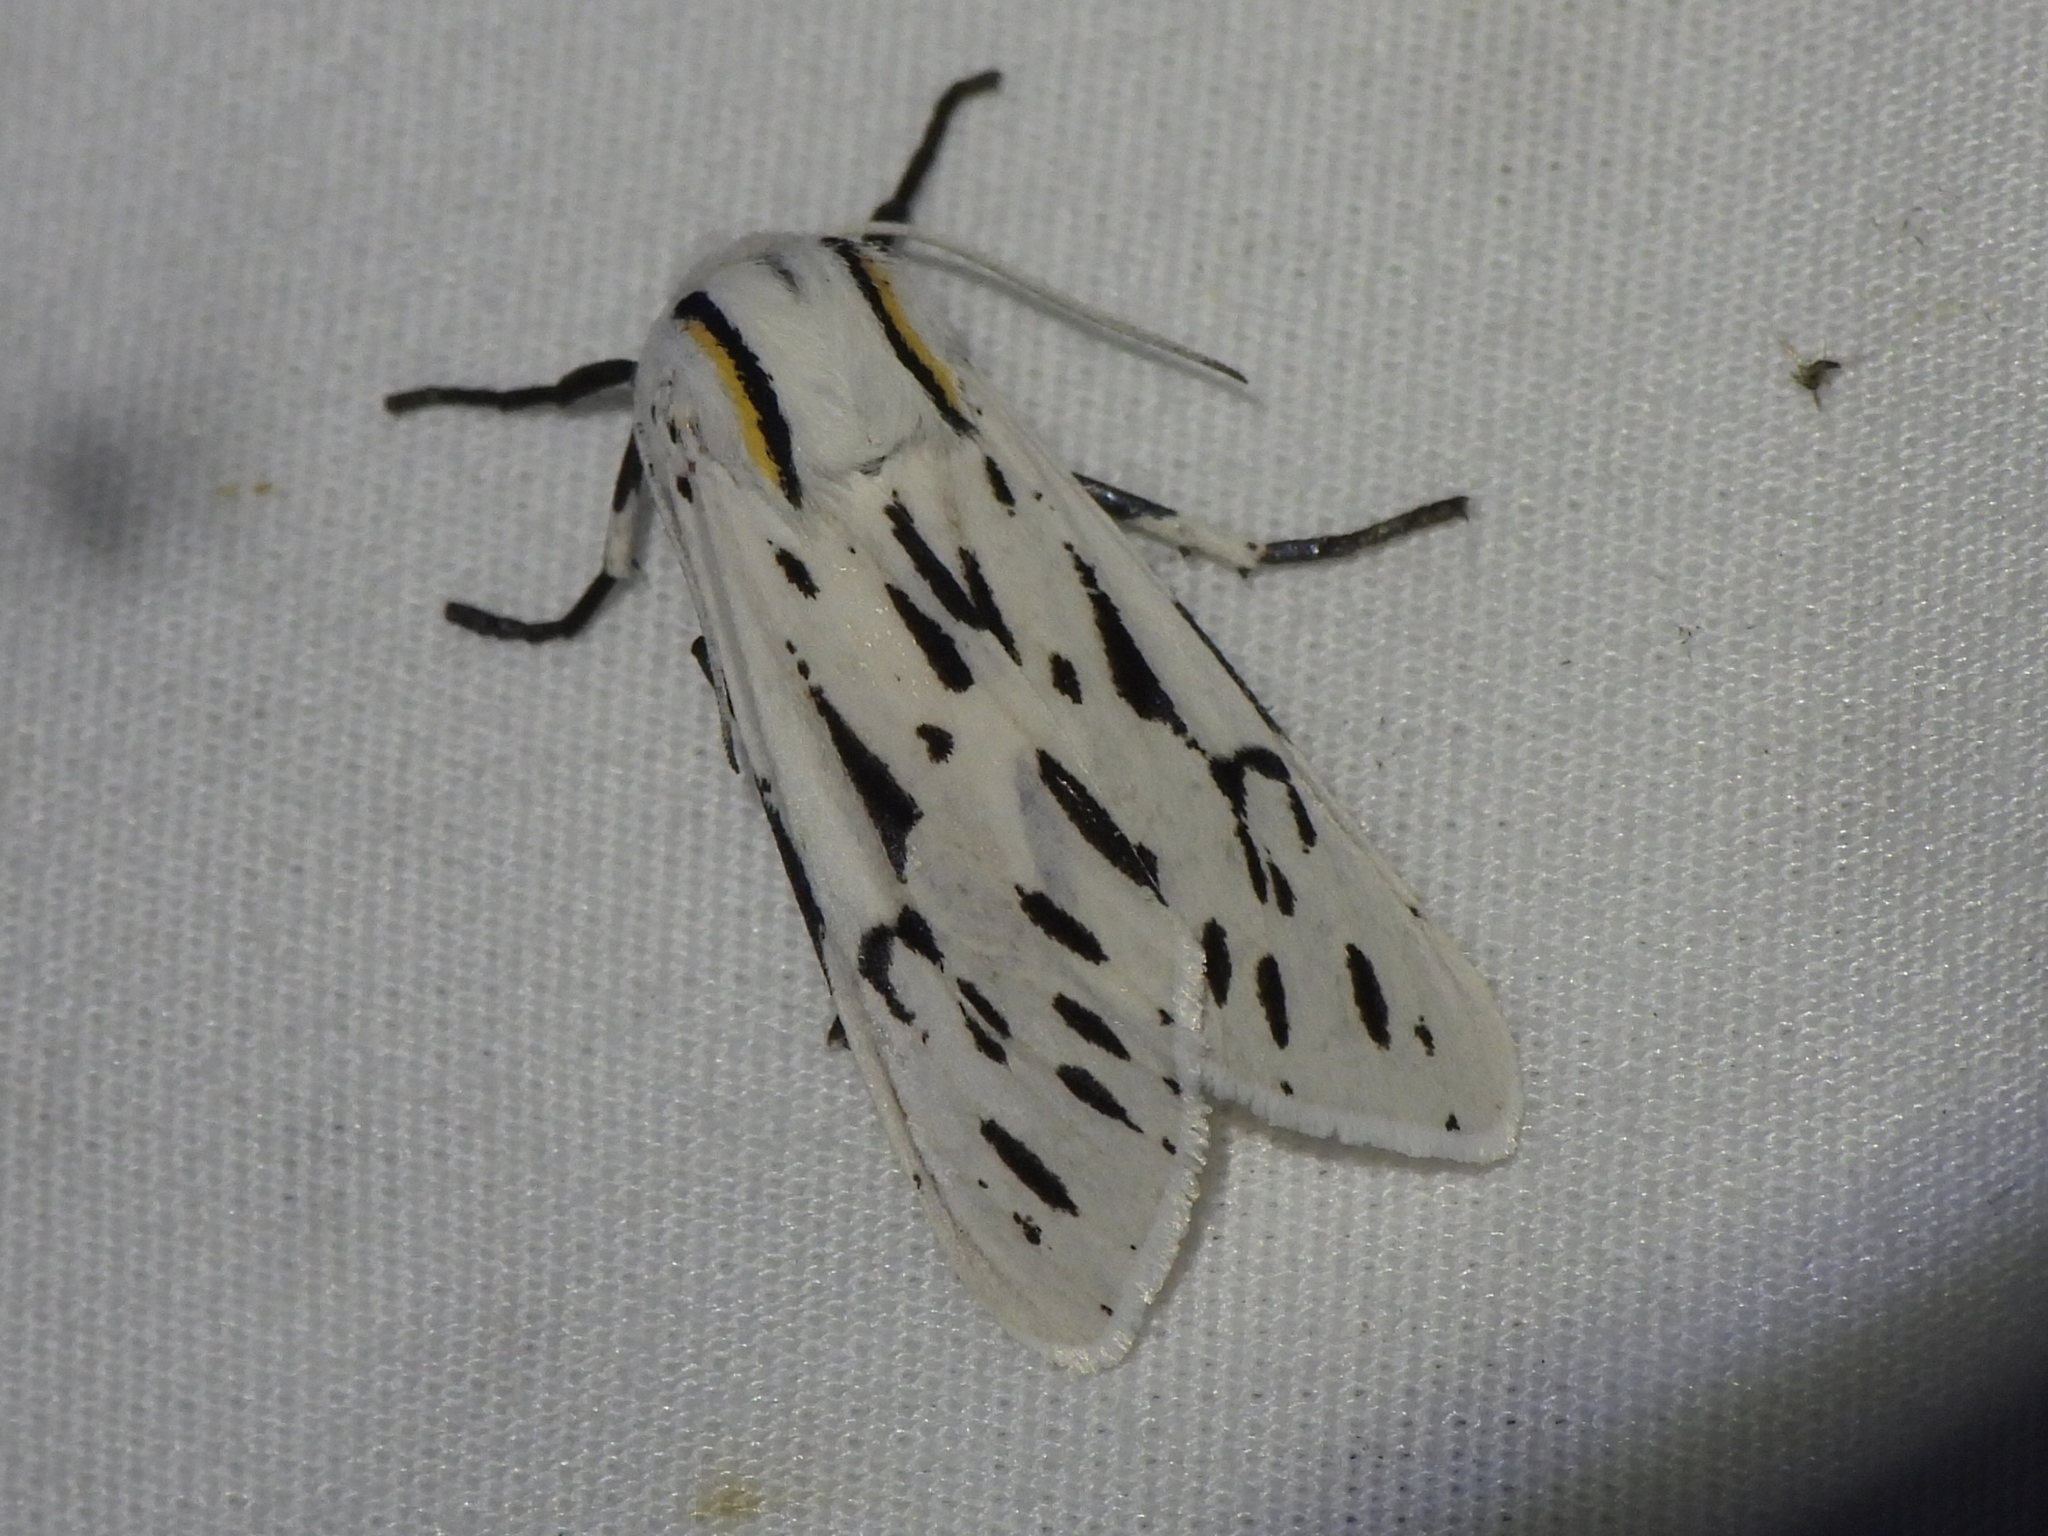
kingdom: Animalia
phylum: Arthropoda
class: Insecta
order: Lepidoptera
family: Erebidae
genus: Ectypia
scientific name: Ectypia bivittata
